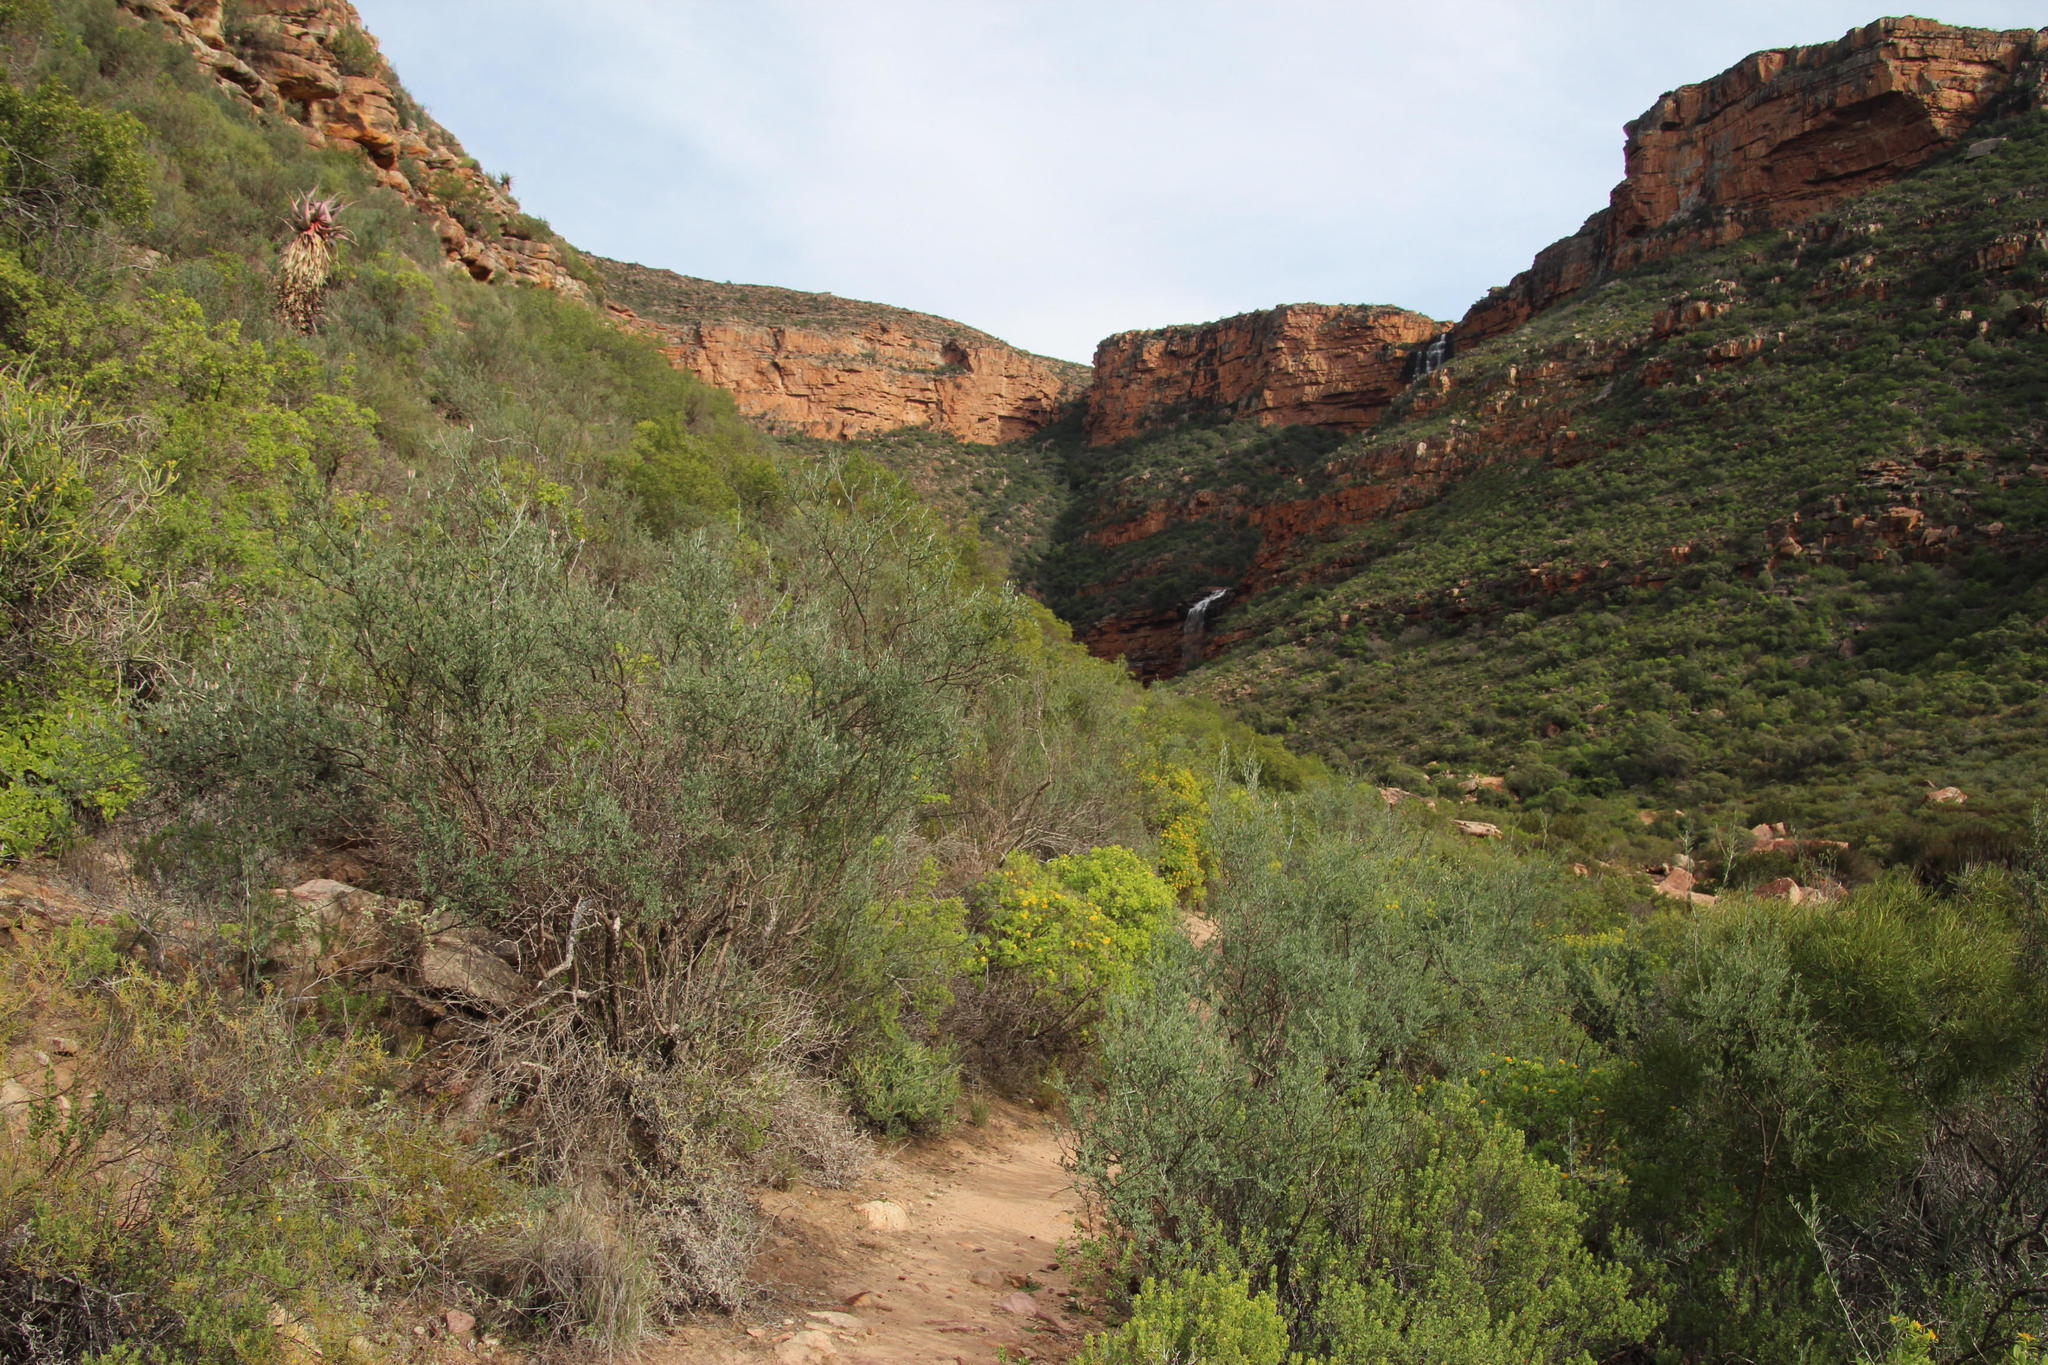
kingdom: Plantae
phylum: Tracheophyta
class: Magnoliopsida
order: Sapindales
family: Anacardiaceae
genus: Searsia
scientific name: Searsia undulata
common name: Namaqua kunibush
